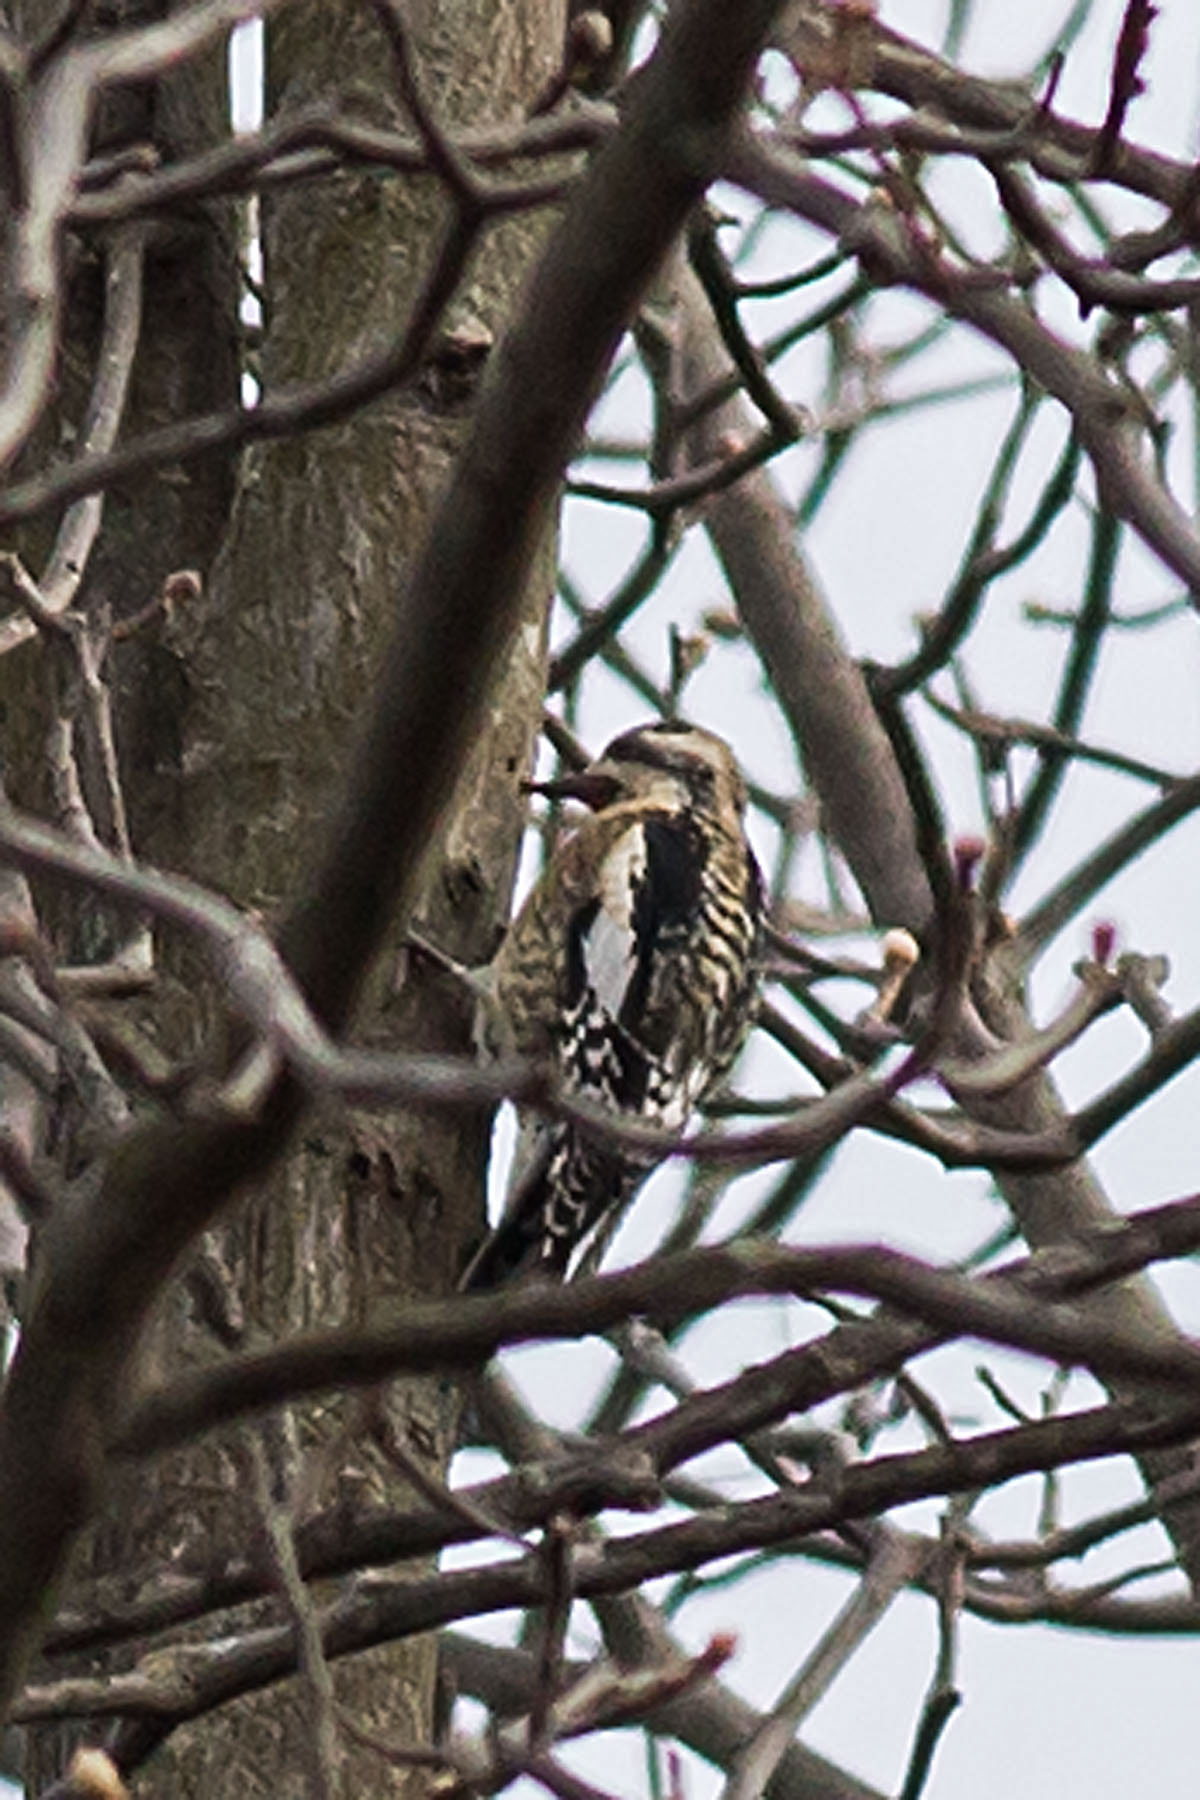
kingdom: Animalia
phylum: Chordata
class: Aves
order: Piciformes
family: Picidae
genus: Sphyrapicus
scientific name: Sphyrapicus varius
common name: Yellow-bellied sapsucker
